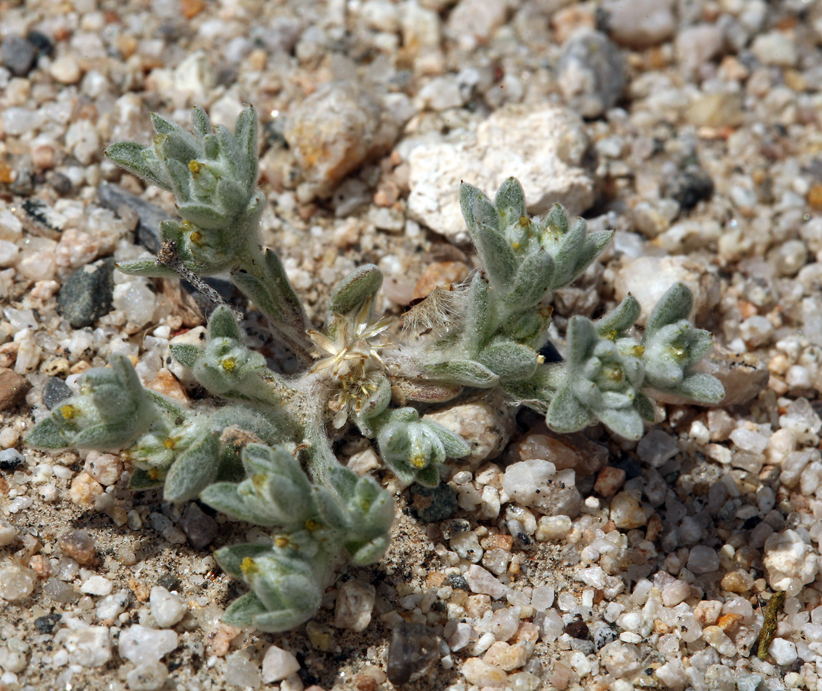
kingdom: Plantae
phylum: Tracheophyta
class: Magnoliopsida
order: Asterales
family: Asteraceae
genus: Logfia
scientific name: Logfia depressa
